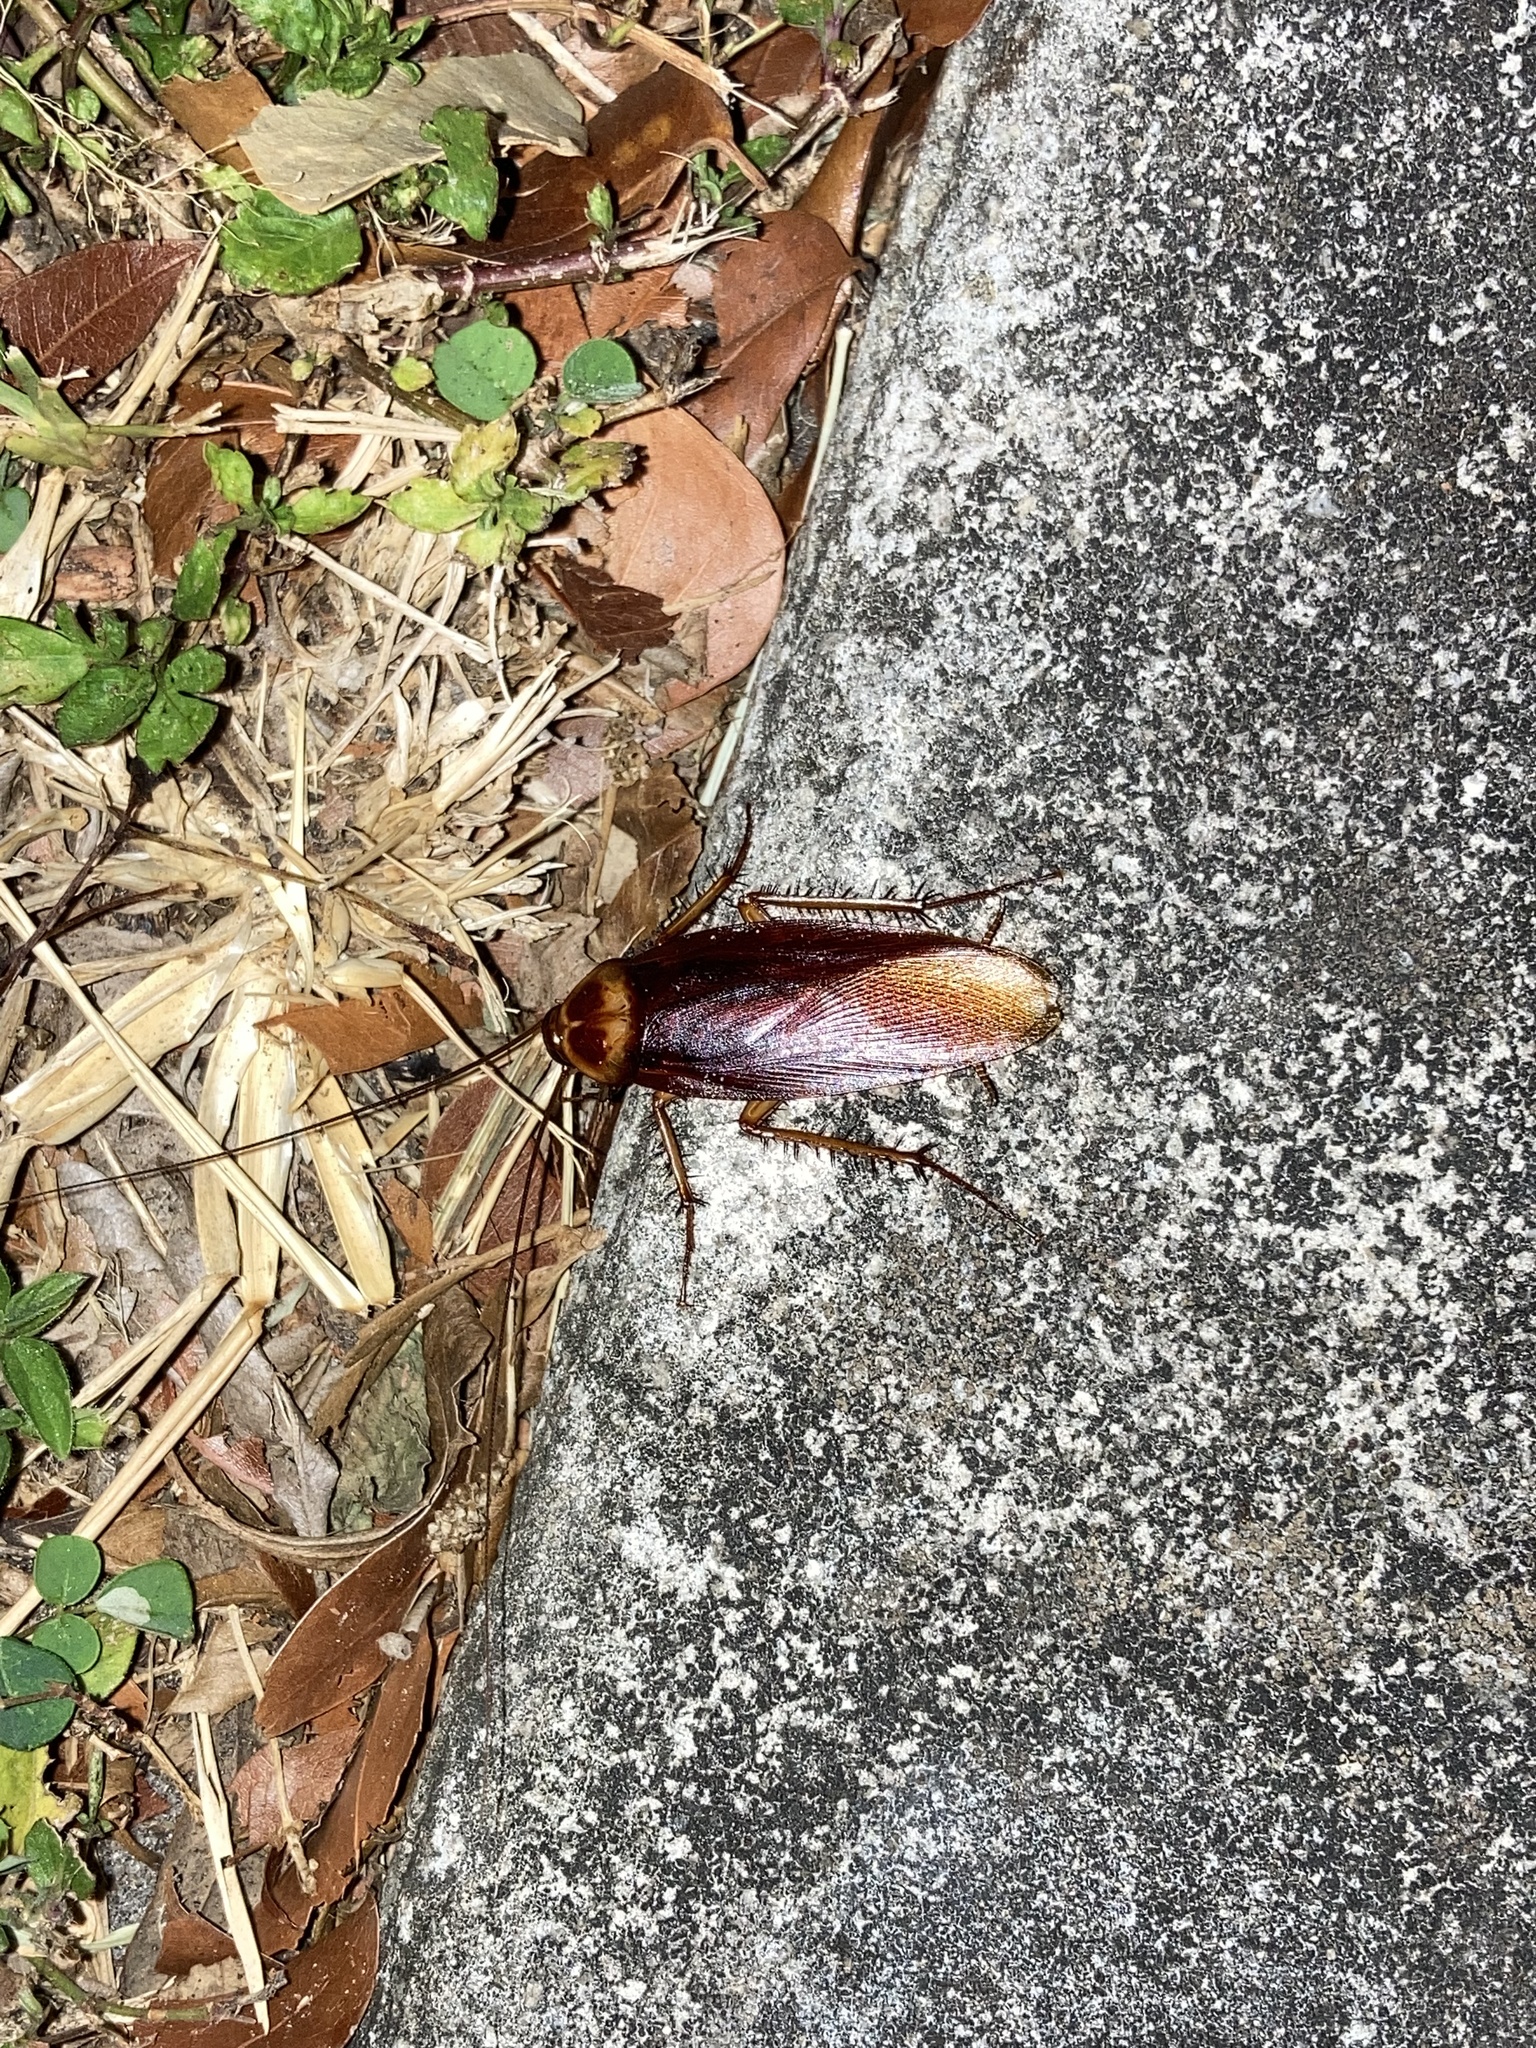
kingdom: Animalia
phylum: Arthropoda
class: Insecta
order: Blattodea
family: Blattidae
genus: Periplaneta
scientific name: Periplaneta americana
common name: American cockroach
